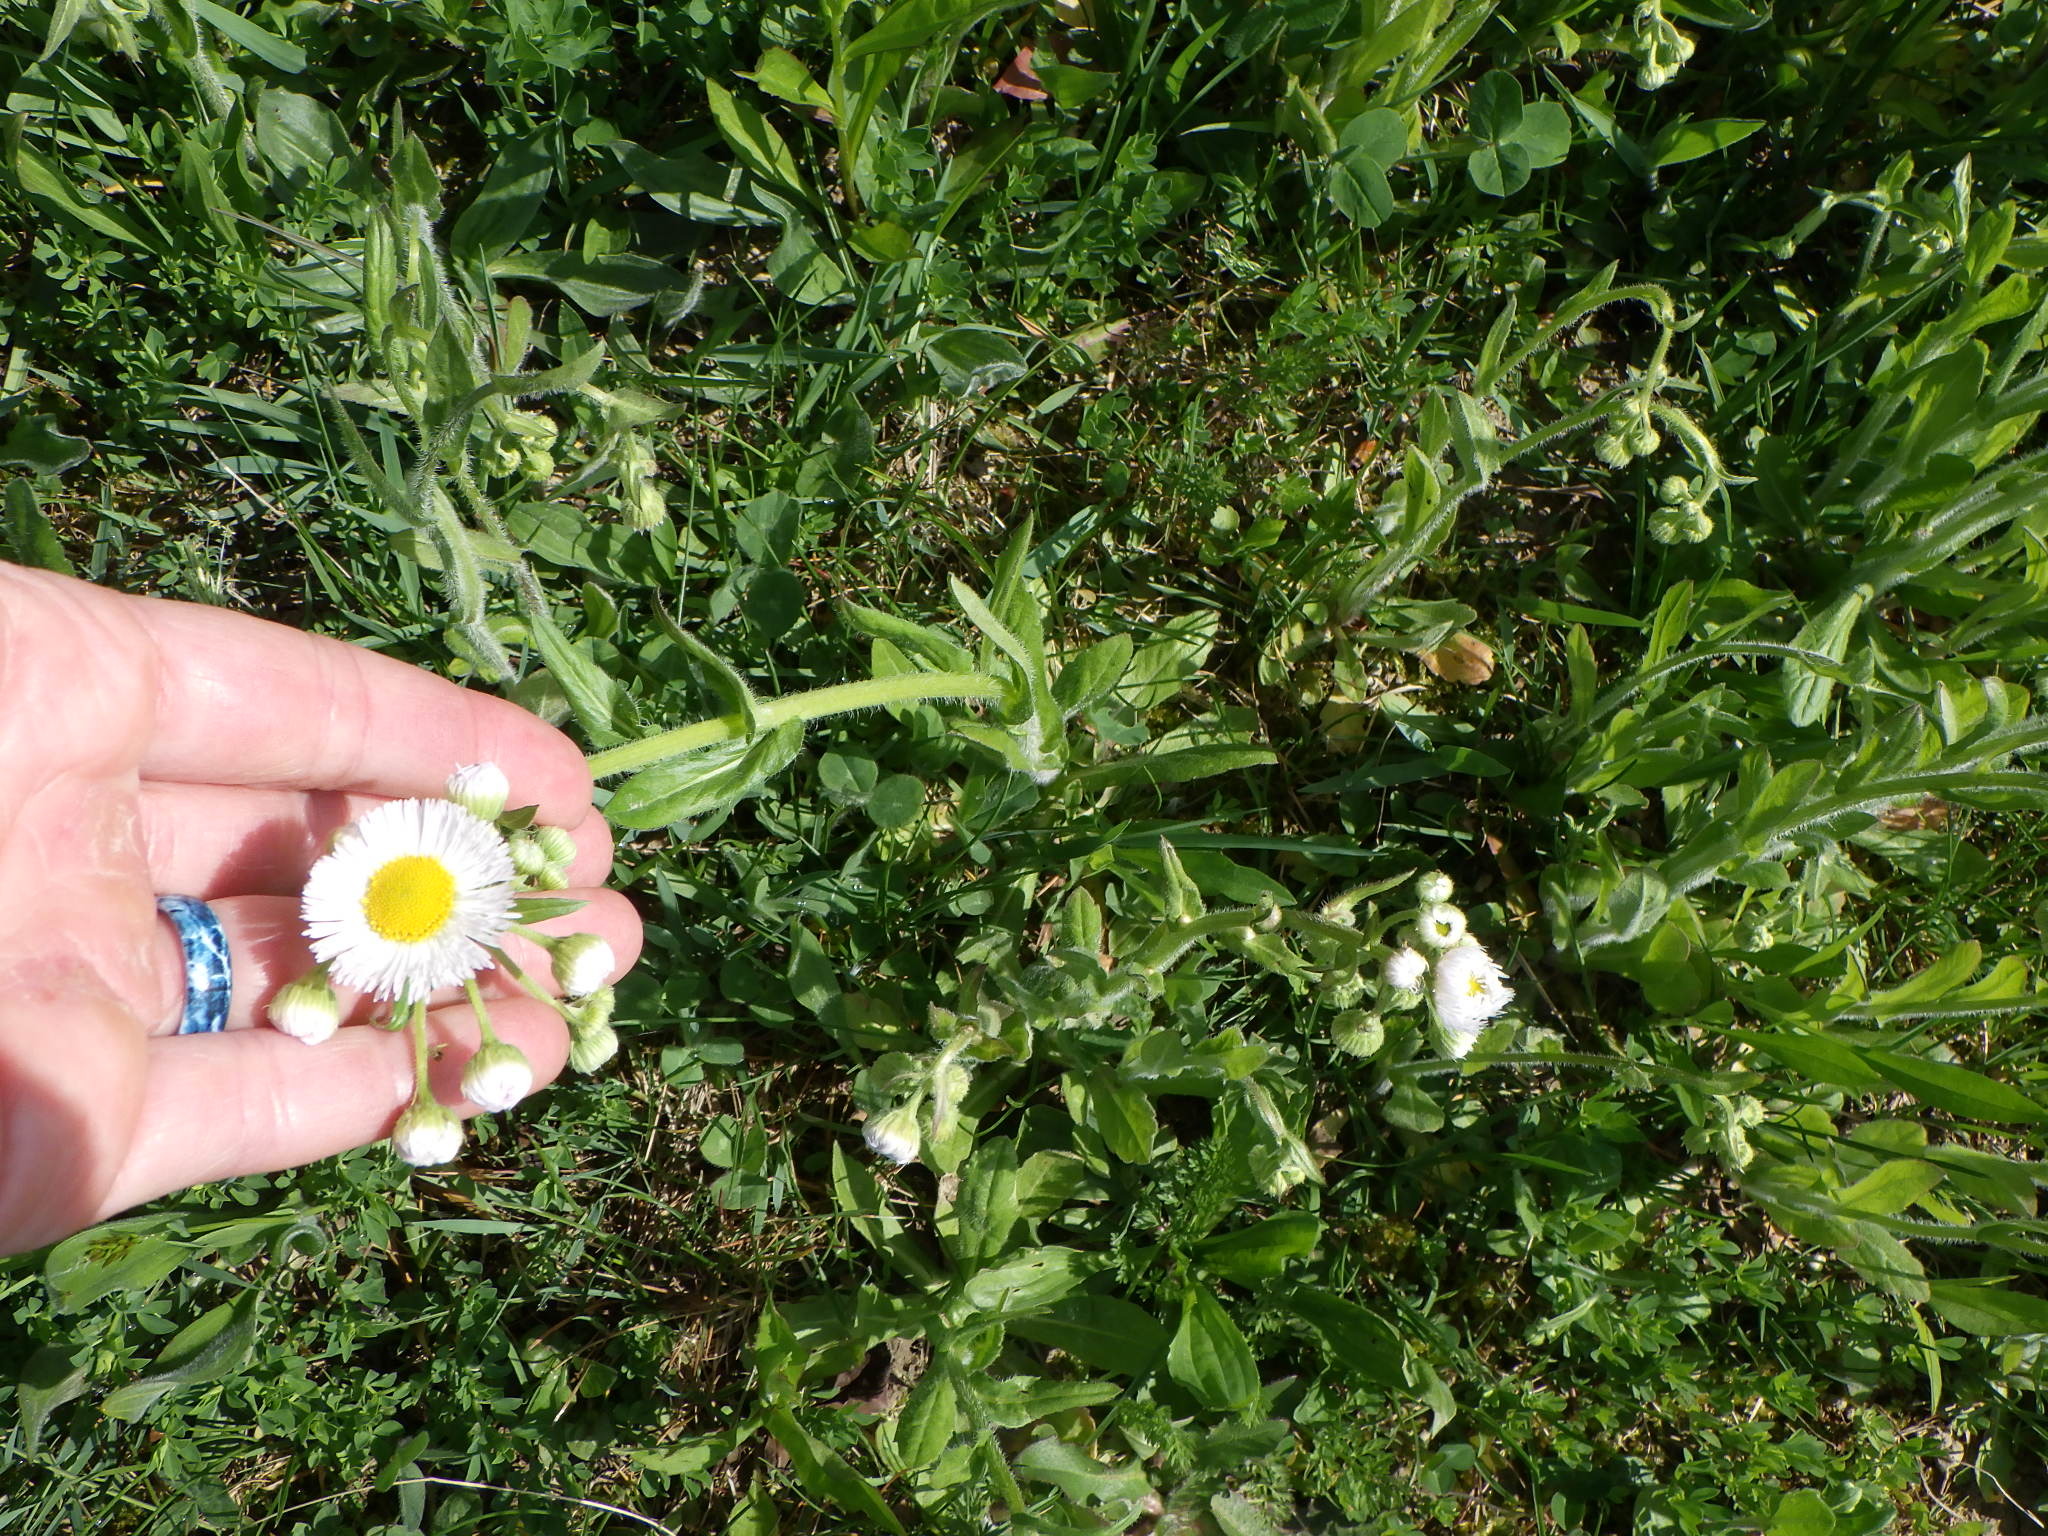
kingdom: Plantae
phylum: Tracheophyta
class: Magnoliopsida
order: Asterales
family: Asteraceae
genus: Erigeron
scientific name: Erigeron philadelphicus
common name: Robin's-plantain
